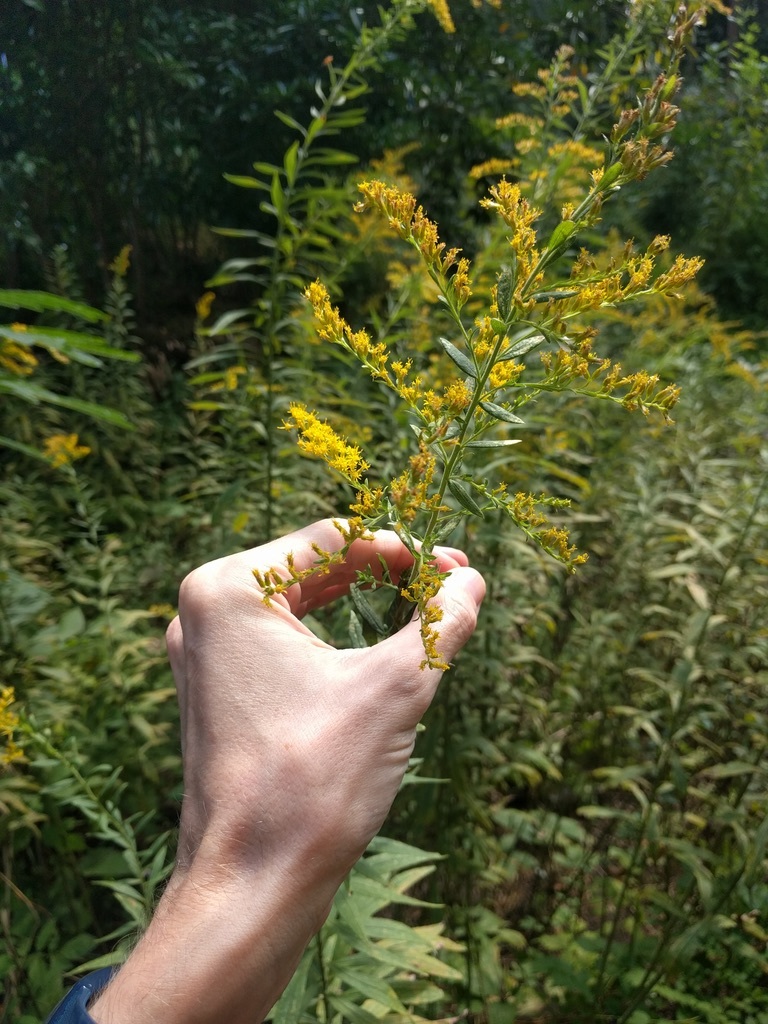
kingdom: Plantae
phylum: Tracheophyta
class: Magnoliopsida
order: Asterales
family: Asteraceae
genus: Solidago
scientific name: Solidago altissima
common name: Late goldenrod
